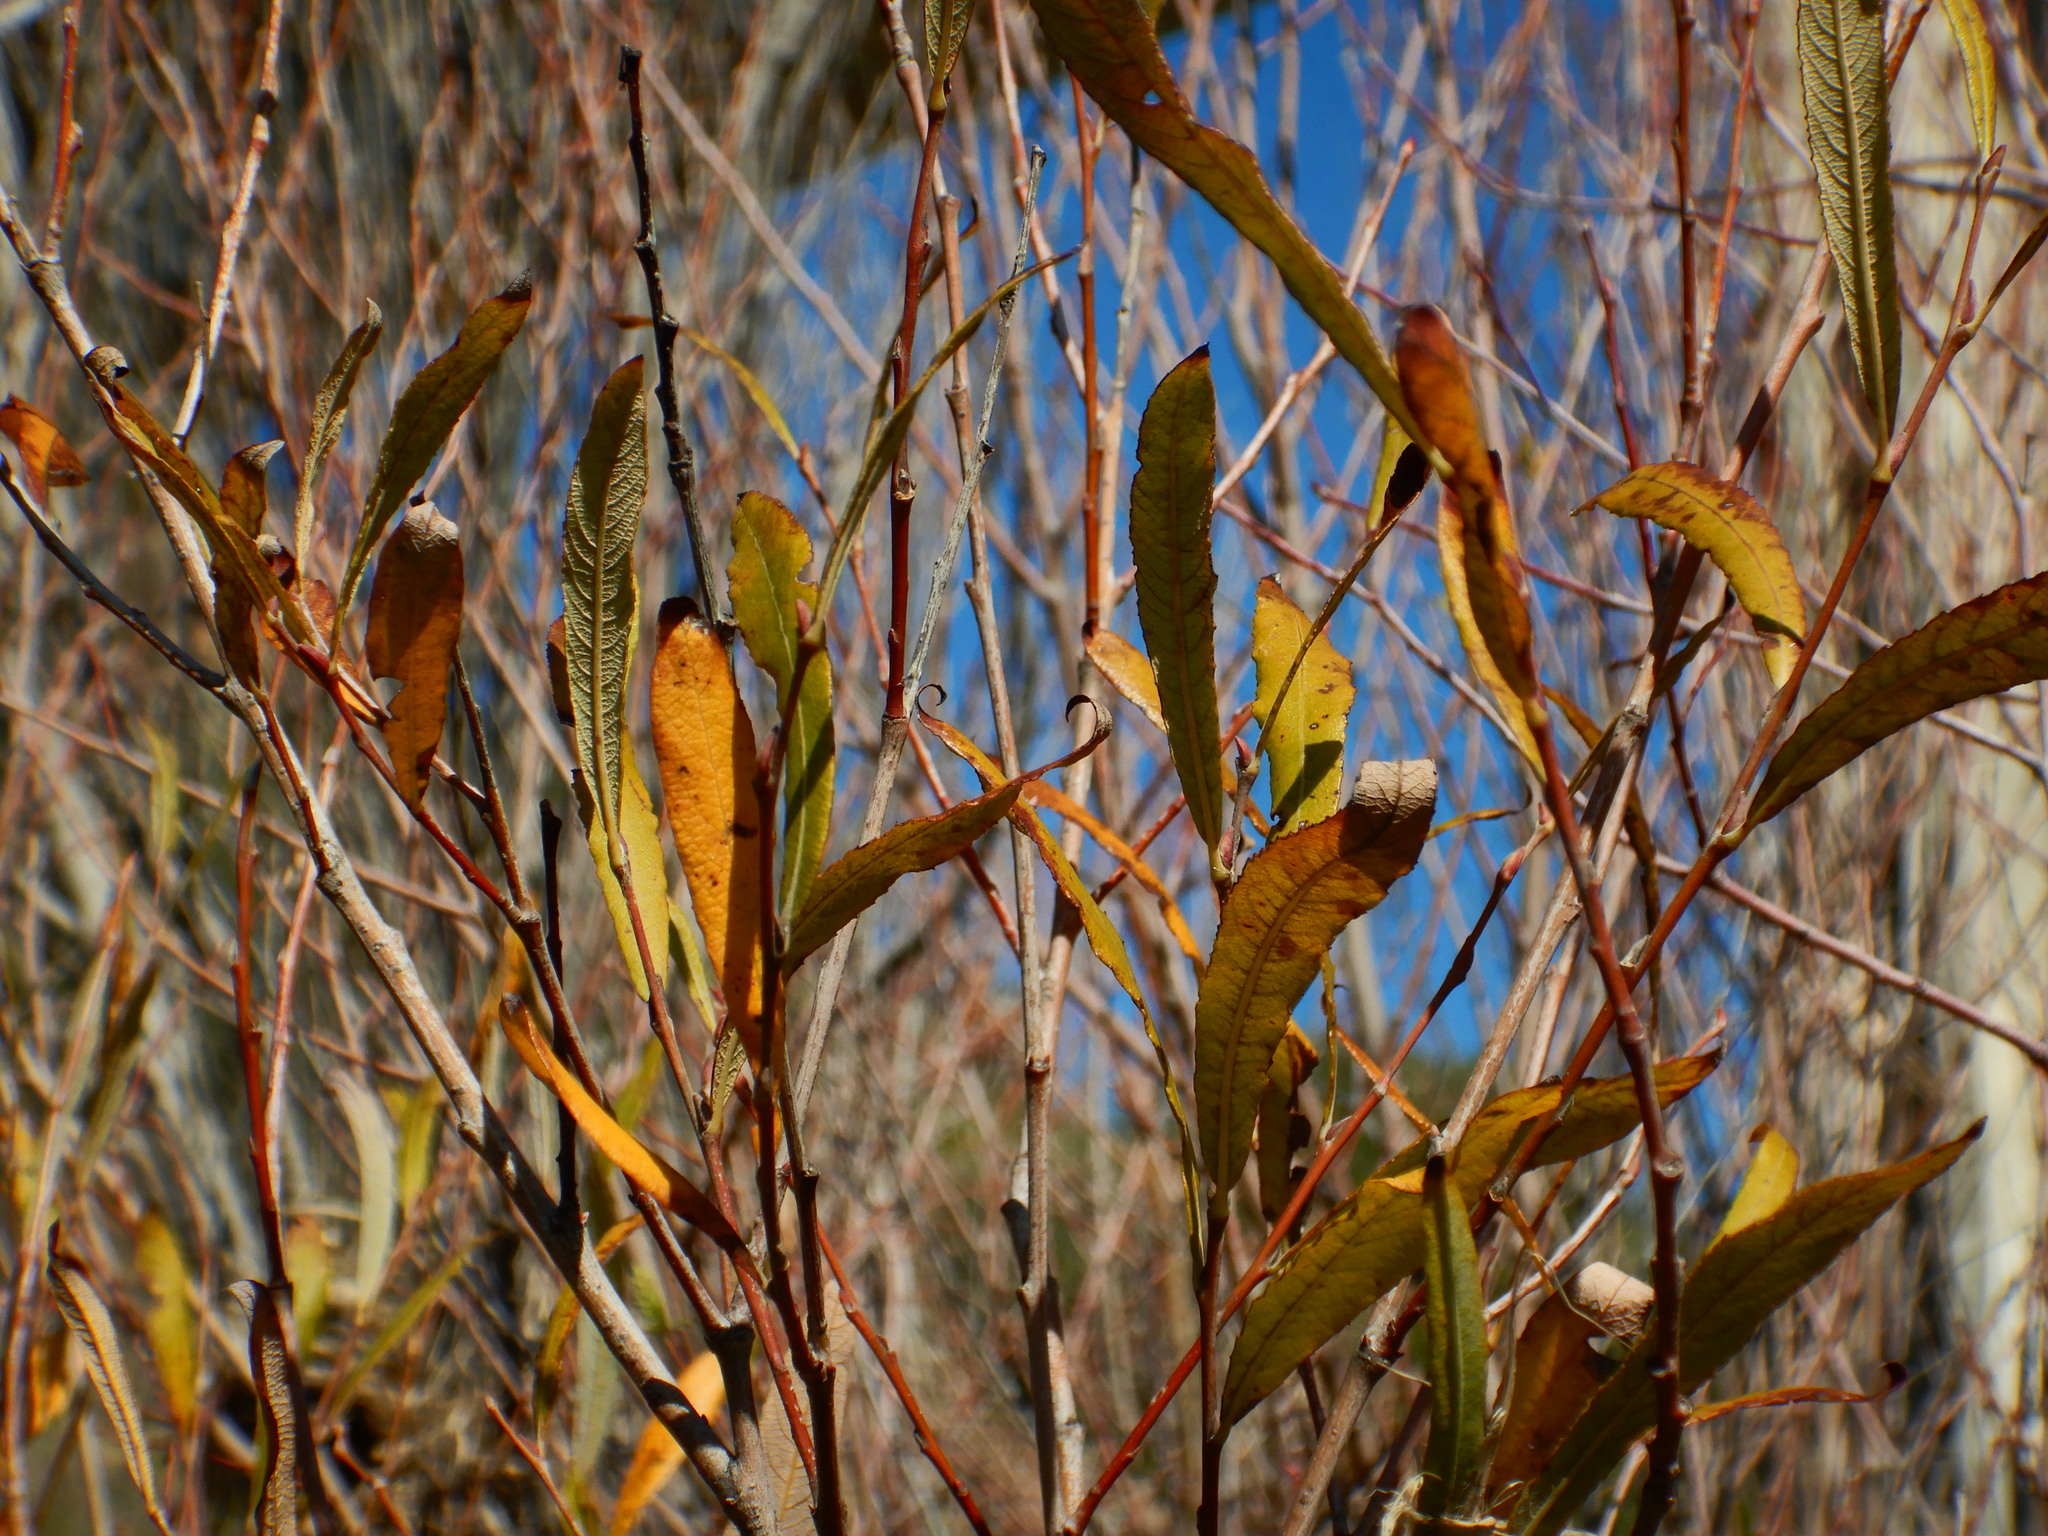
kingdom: Plantae
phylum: Tracheophyta
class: Magnoliopsida
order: Malpighiales
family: Salicaceae
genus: Salix
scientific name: Salix salviifolia
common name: Salvia-leaf willow
